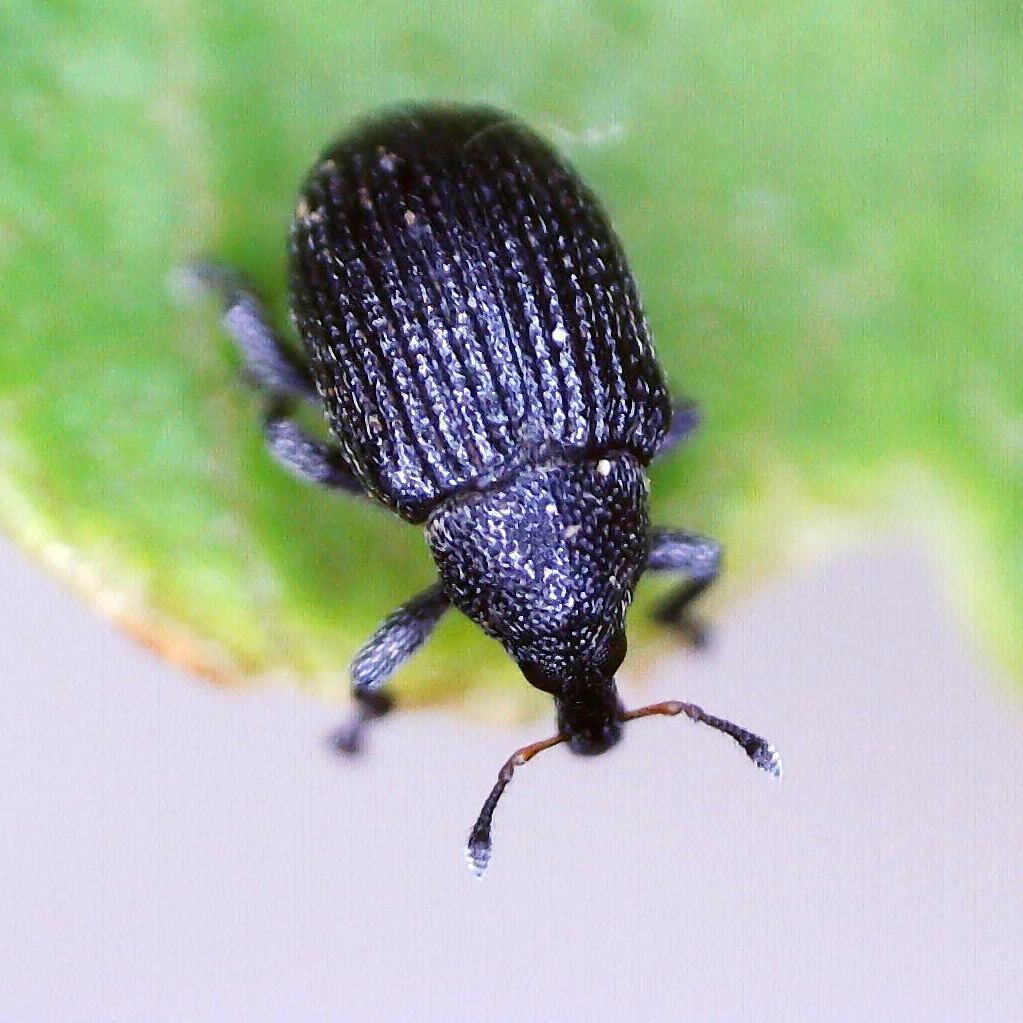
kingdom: Animalia
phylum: Arthropoda
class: Insecta
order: Coleoptera
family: Curculionidae
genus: Anoplus
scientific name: Anoplus plantaris
